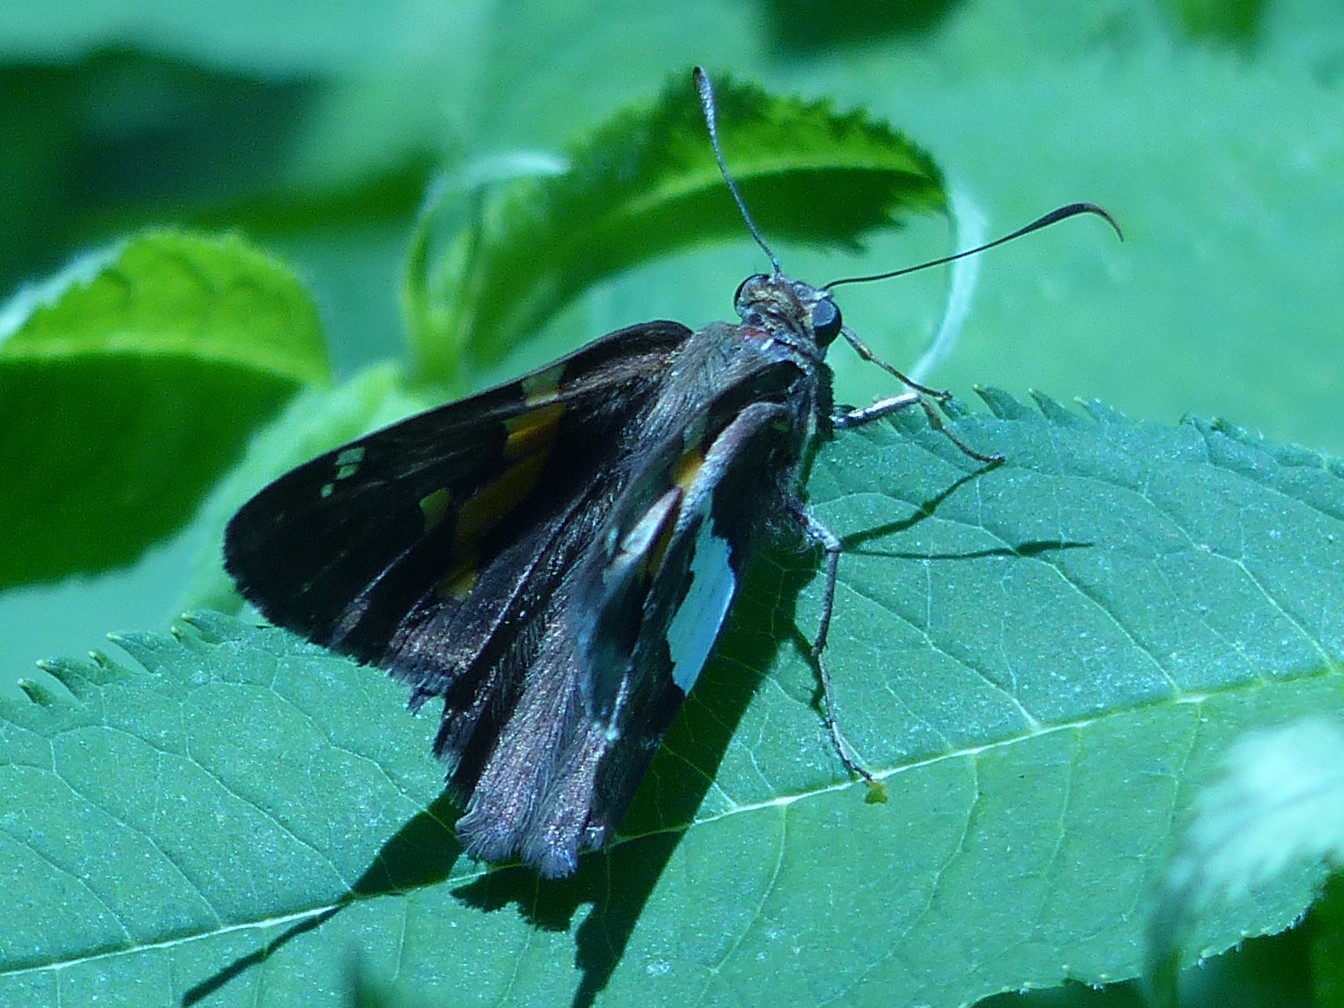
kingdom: Animalia
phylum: Arthropoda
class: Insecta
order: Lepidoptera
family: Hesperiidae
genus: Epargyreus
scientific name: Epargyreus clarus
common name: Silver-spotted skipper
